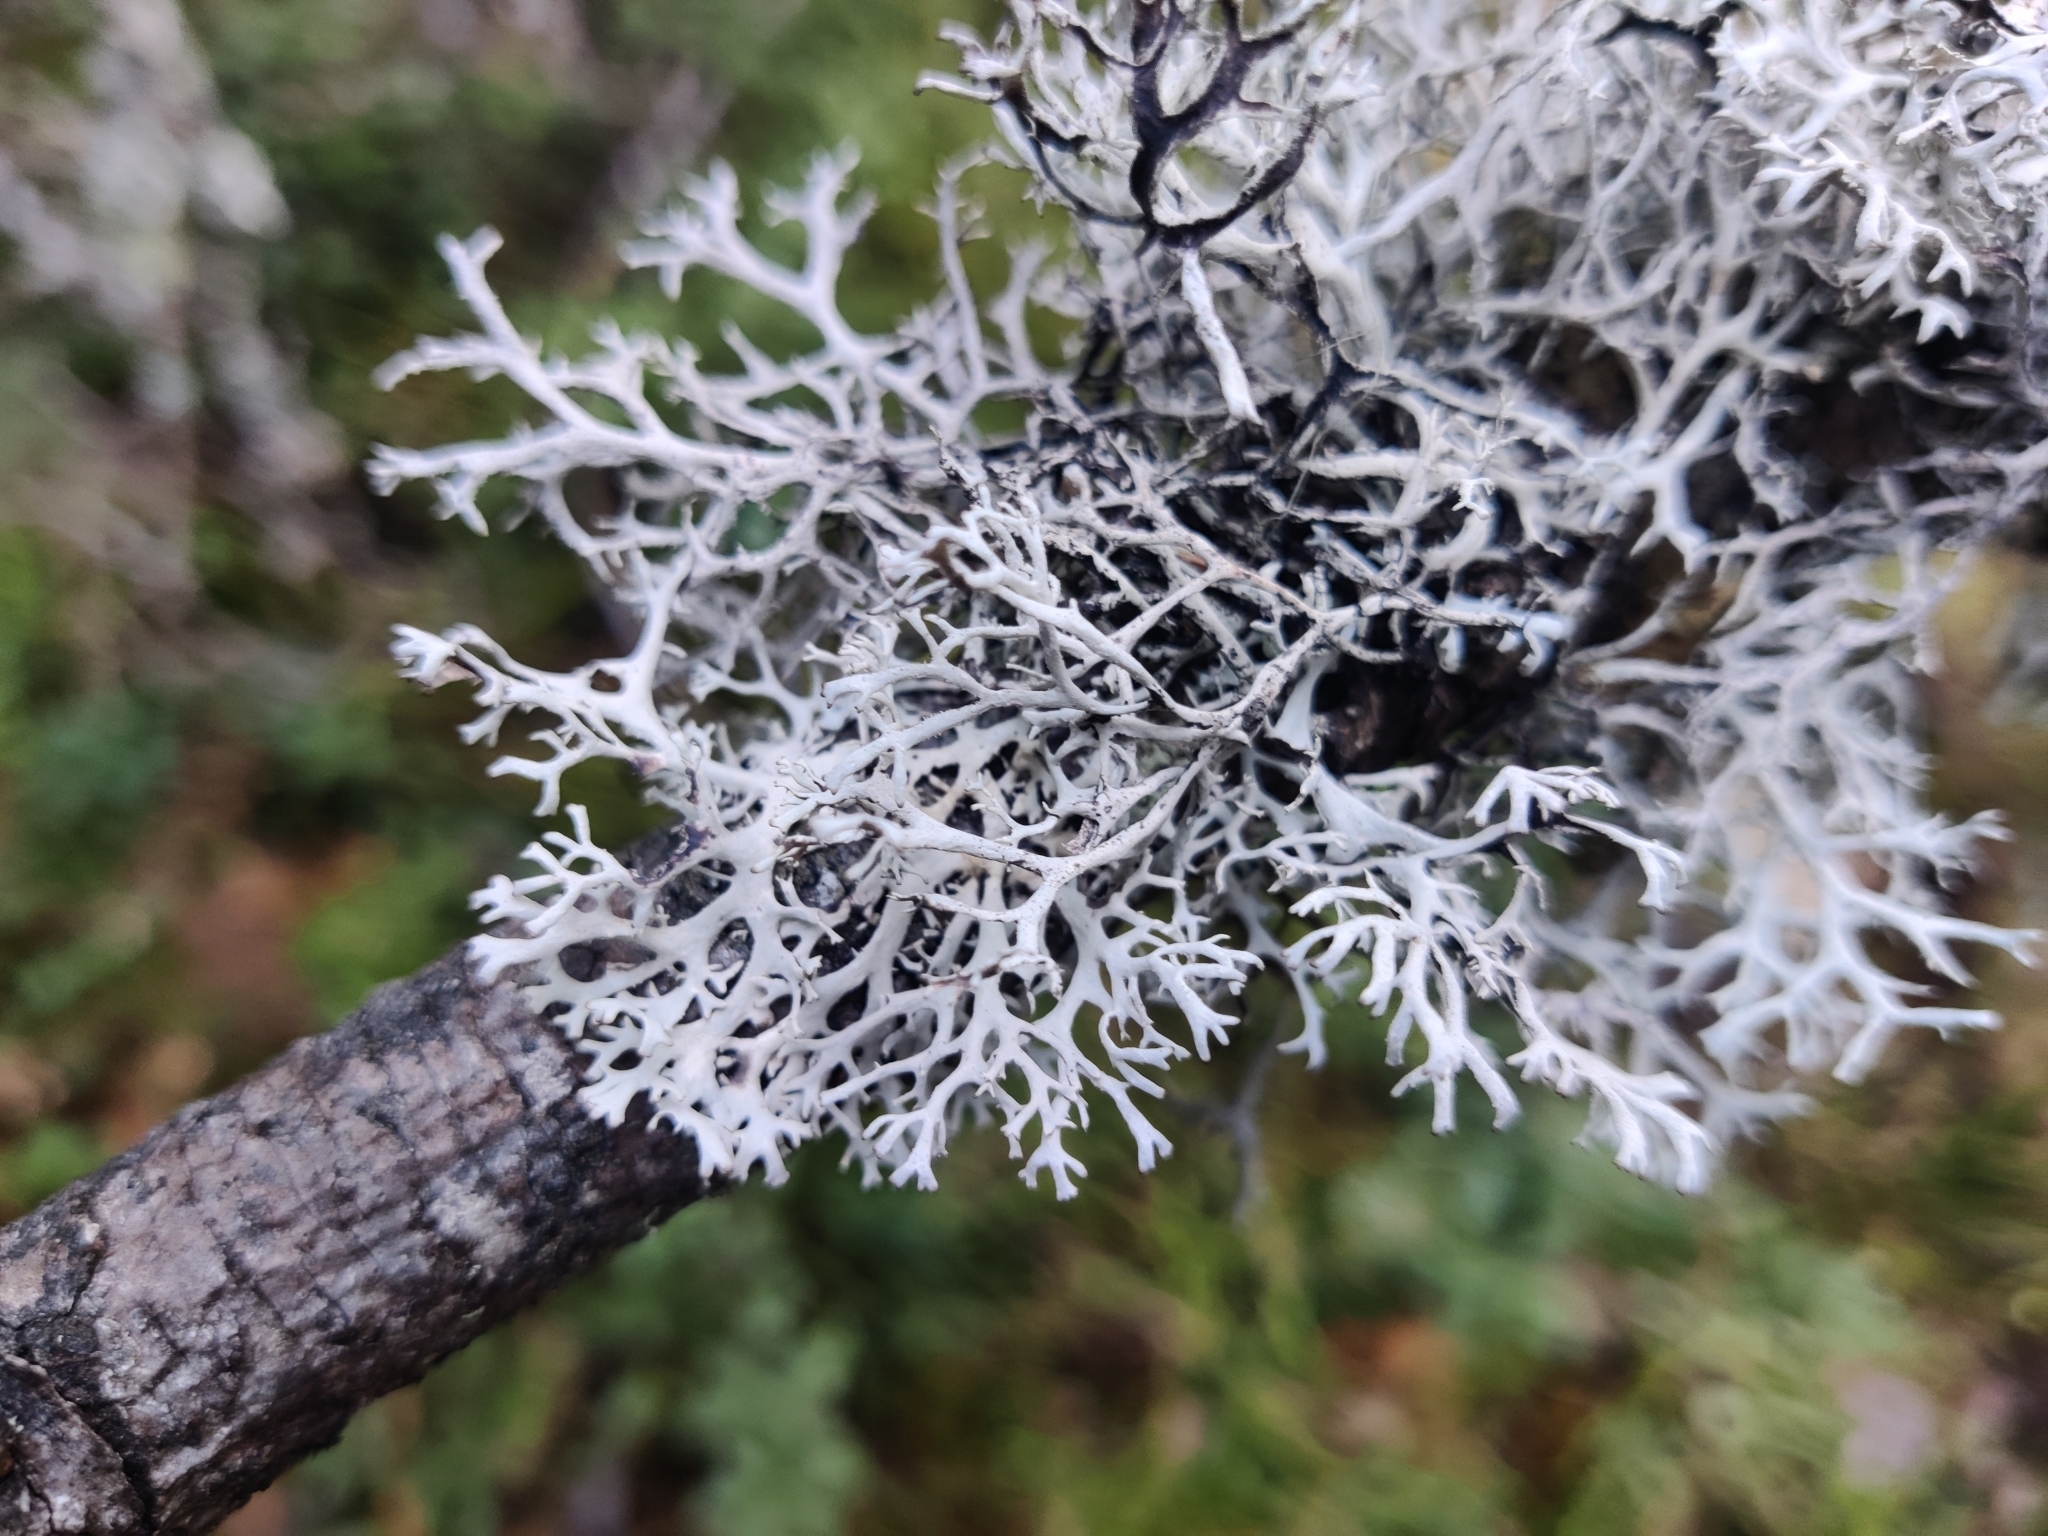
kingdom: Fungi
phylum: Ascomycota
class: Lecanoromycetes
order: Lecanorales
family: Parmeliaceae
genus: Pseudevernia
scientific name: Pseudevernia furfuracea
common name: Tree moss
